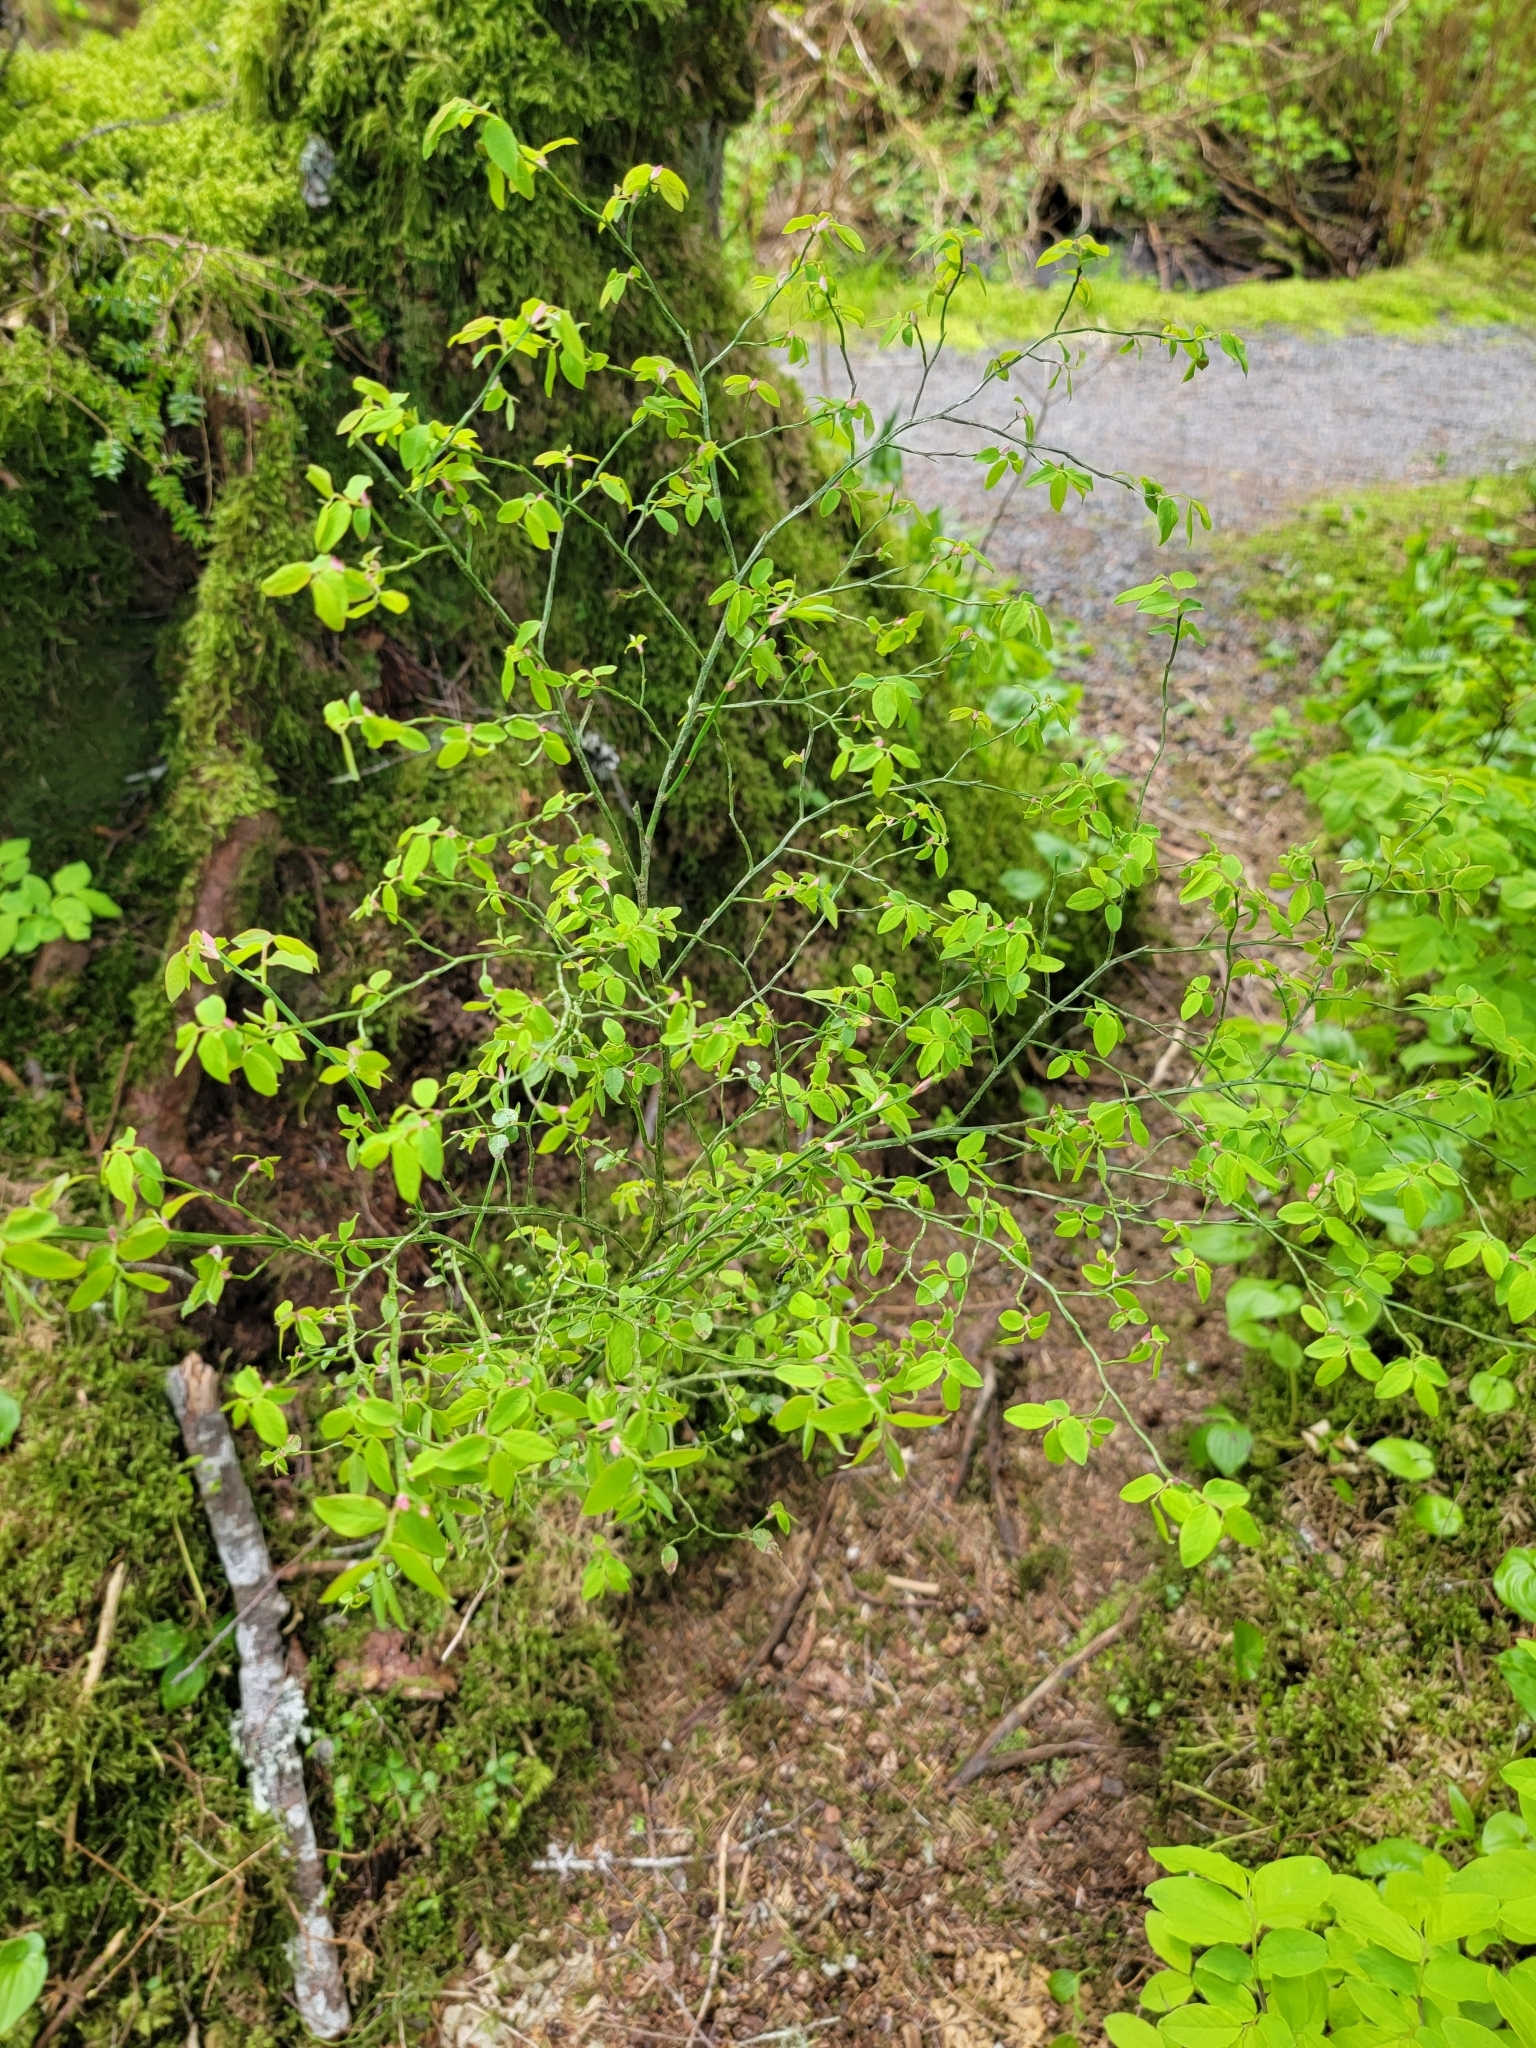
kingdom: Plantae
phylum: Tracheophyta
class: Magnoliopsida
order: Ericales
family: Ericaceae
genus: Vaccinium
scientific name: Vaccinium parvifolium
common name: Red-huckleberry
